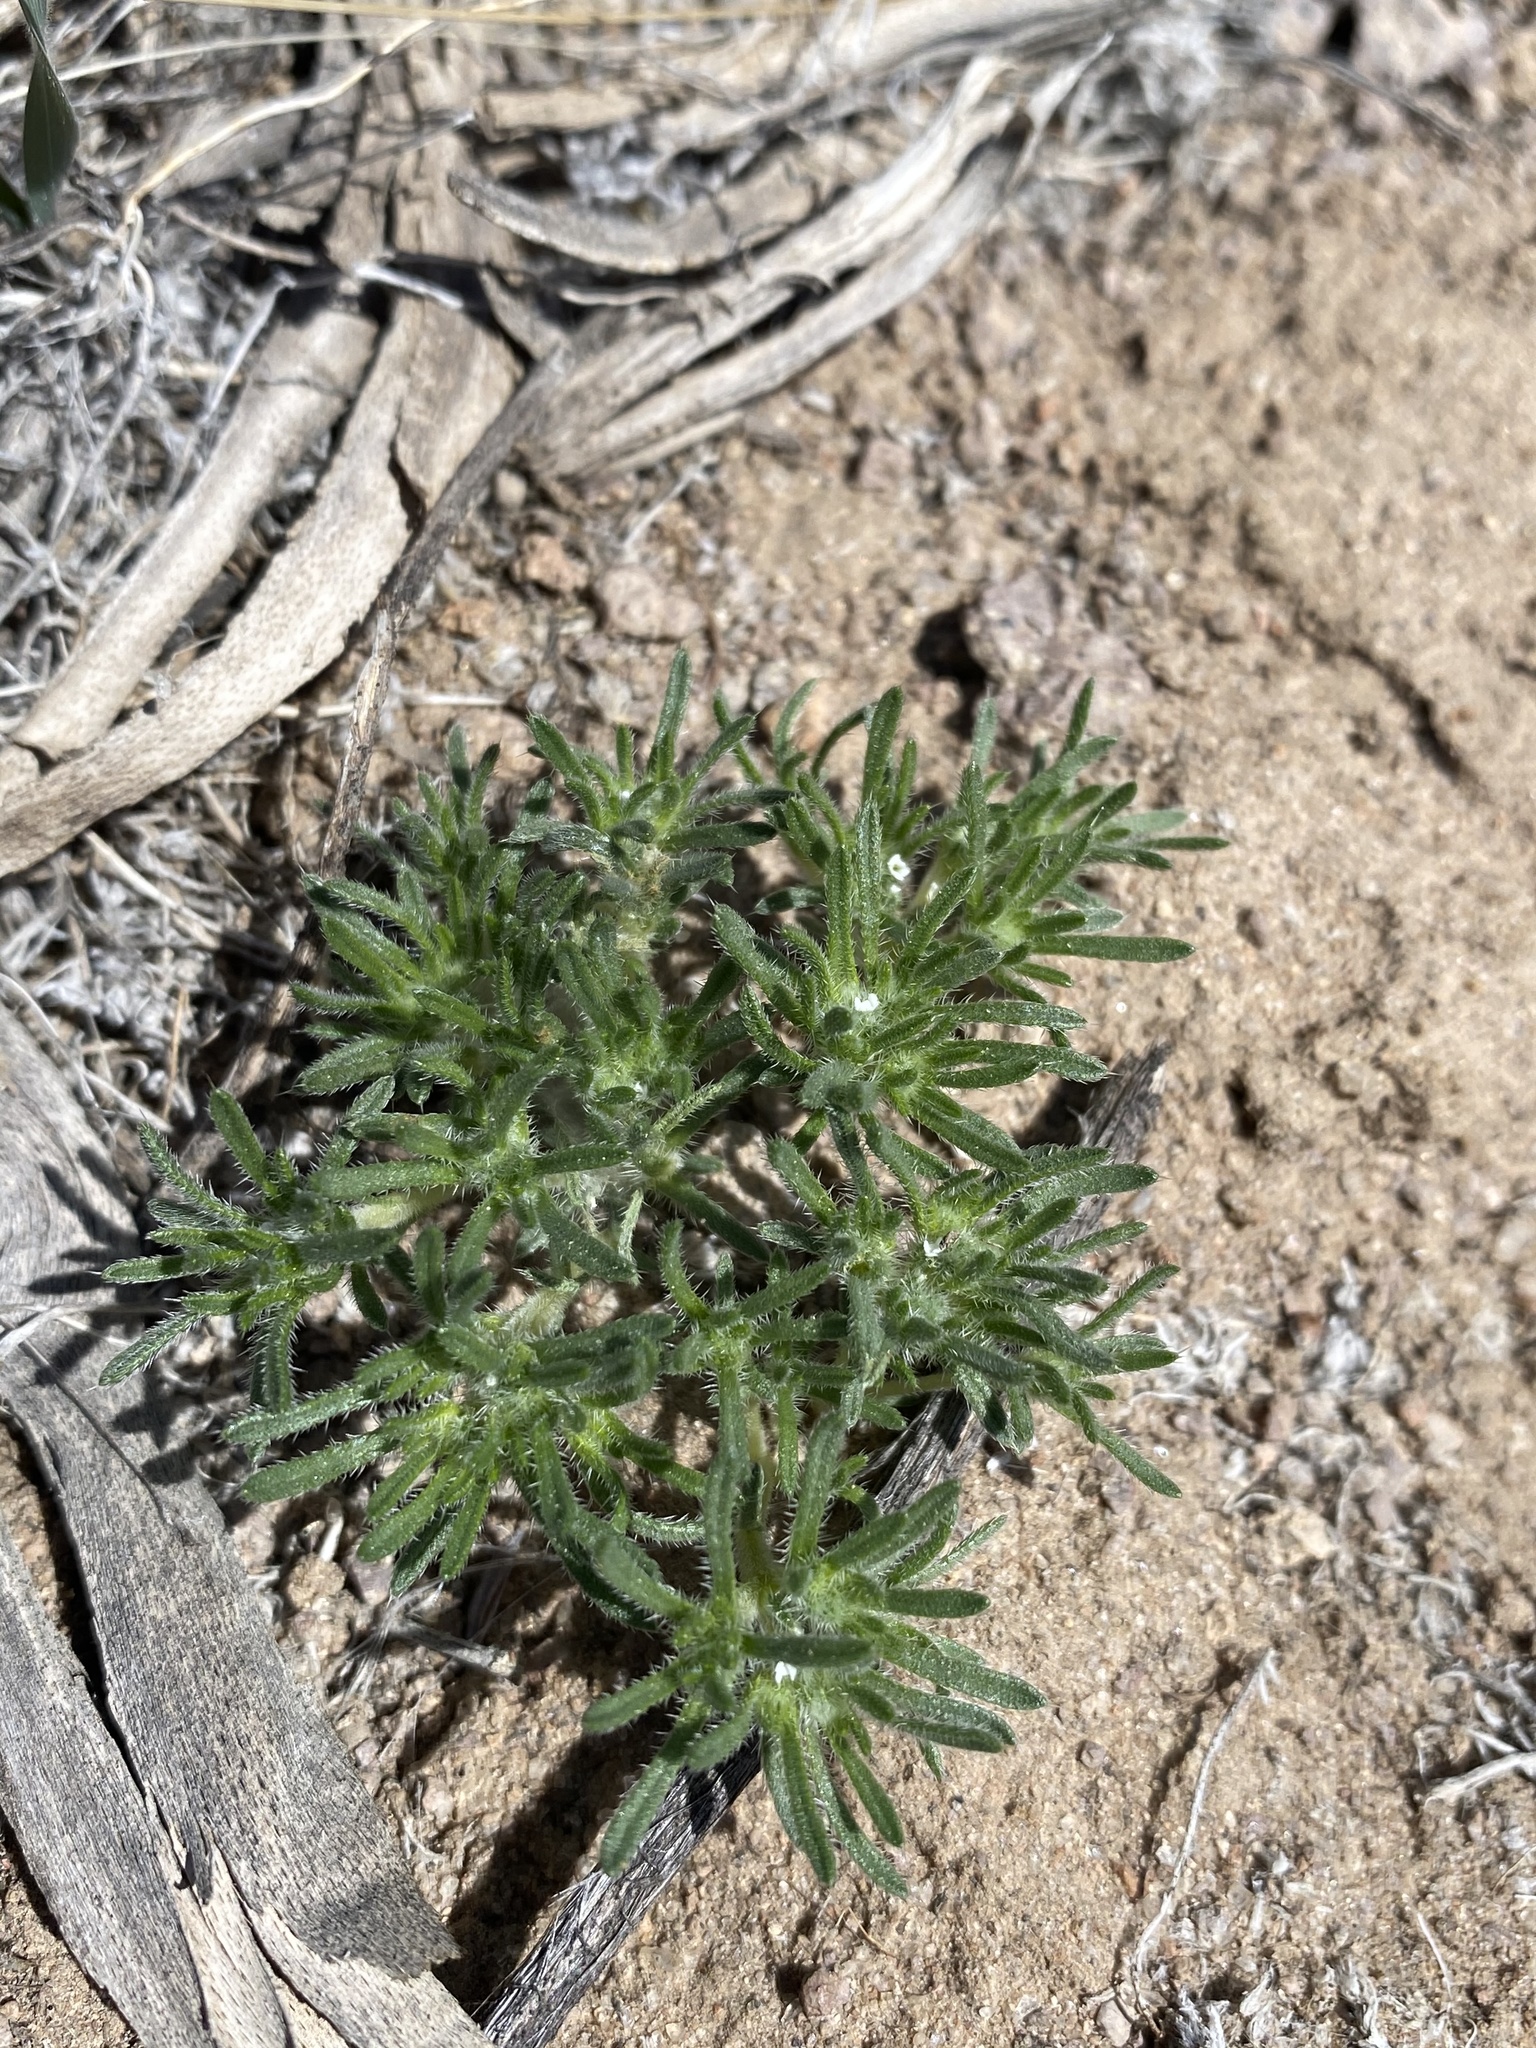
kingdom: Plantae
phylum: Tracheophyta
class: Magnoliopsida
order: Boraginales
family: Boraginaceae
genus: Greeneocharis
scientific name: Greeneocharis circumscissa
